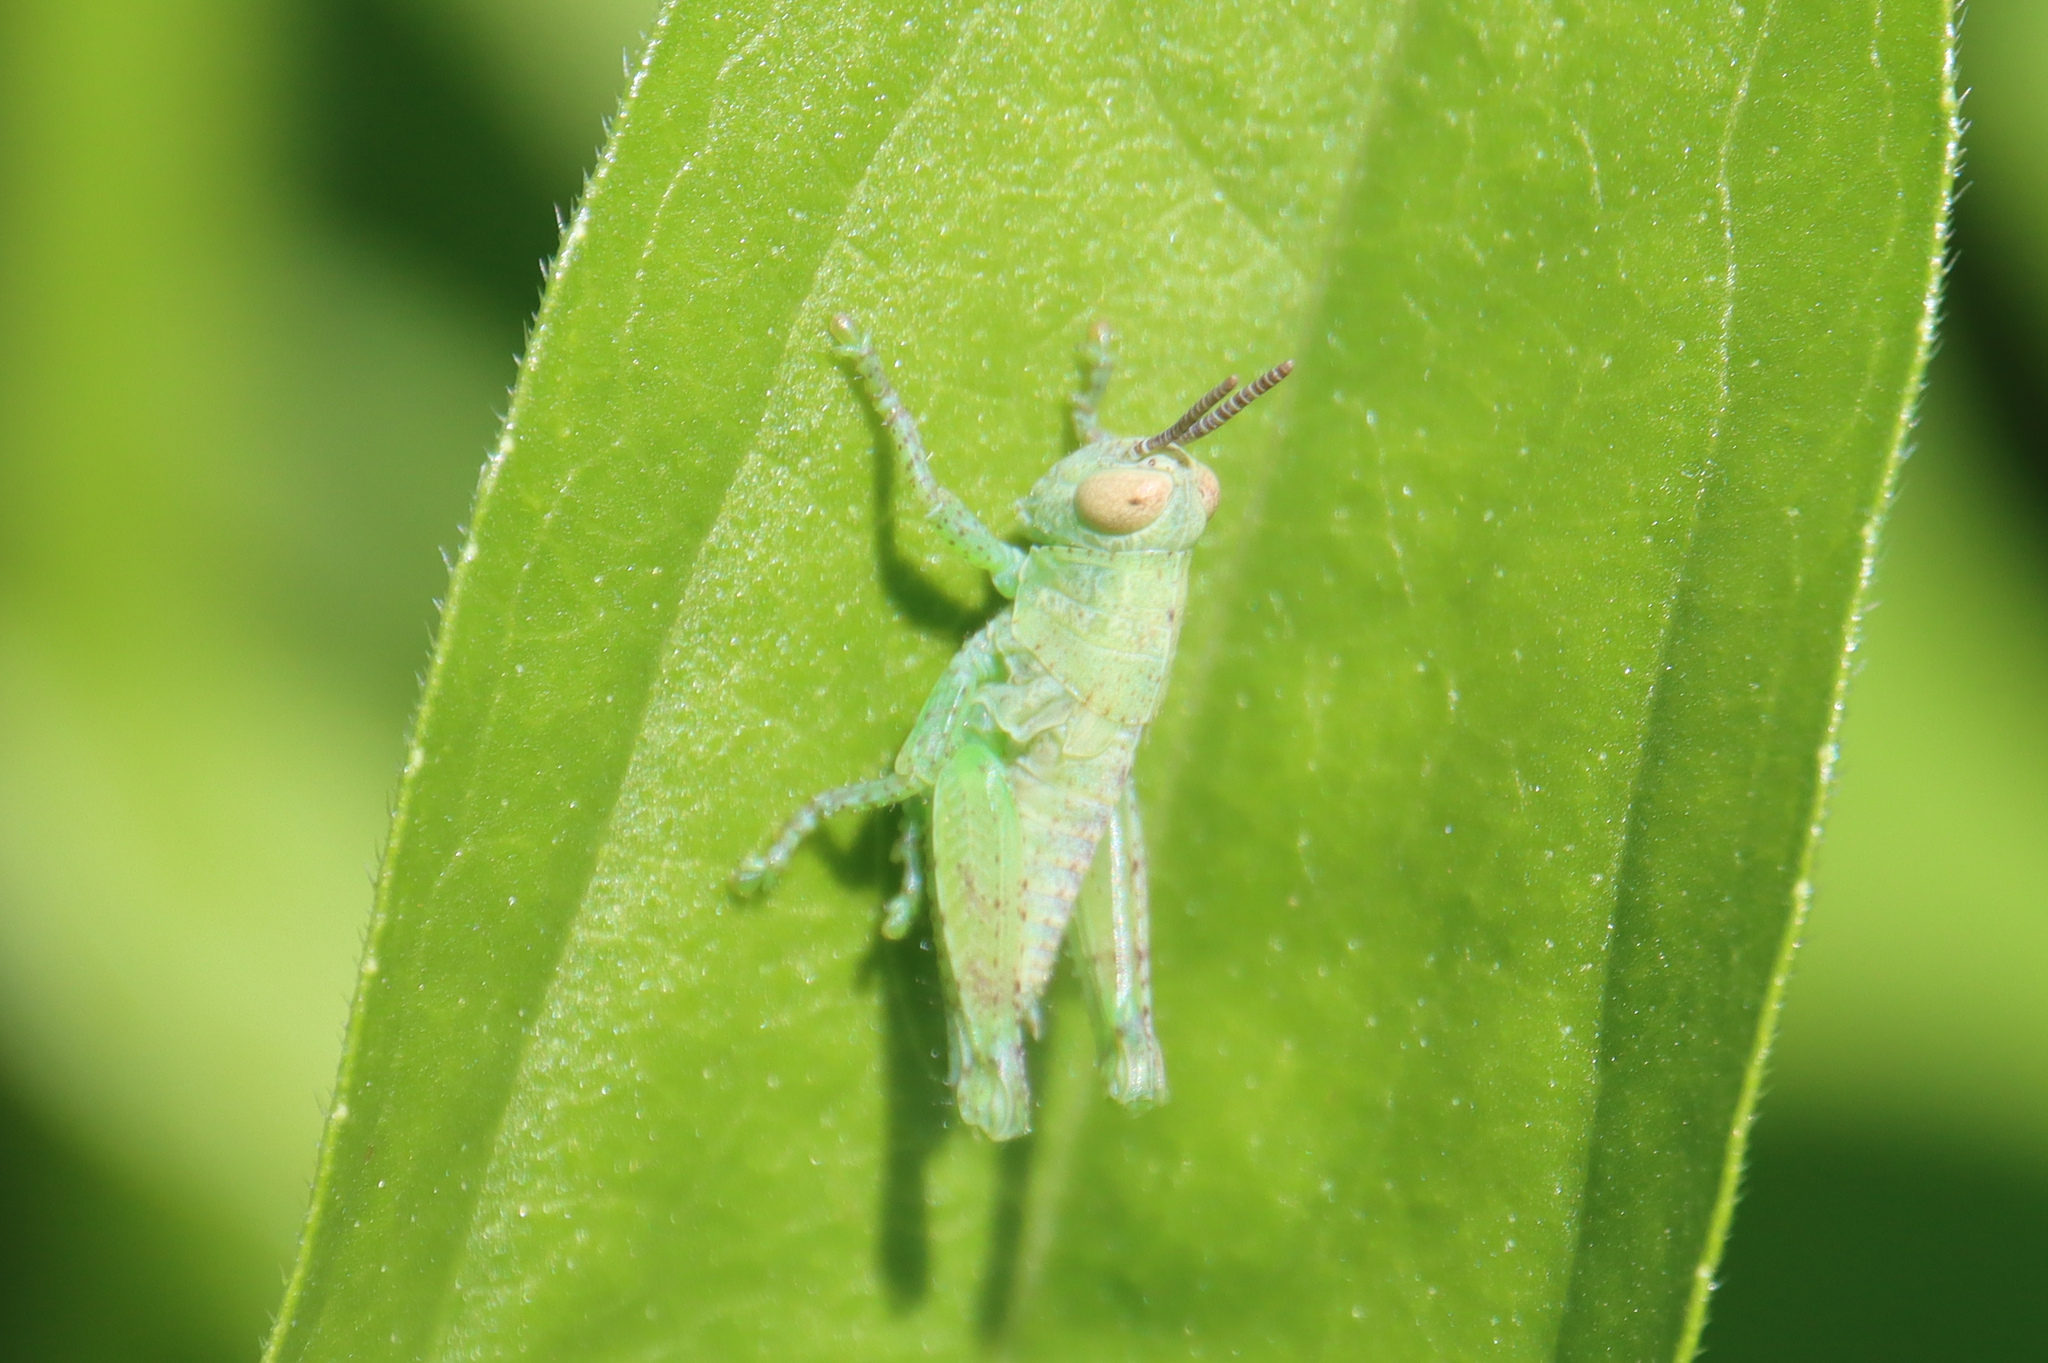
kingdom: Animalia
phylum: Arthropoda
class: Insecta
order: Orthoptera
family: Acrididae
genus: Pezotettix
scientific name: Pezotettix giornae
